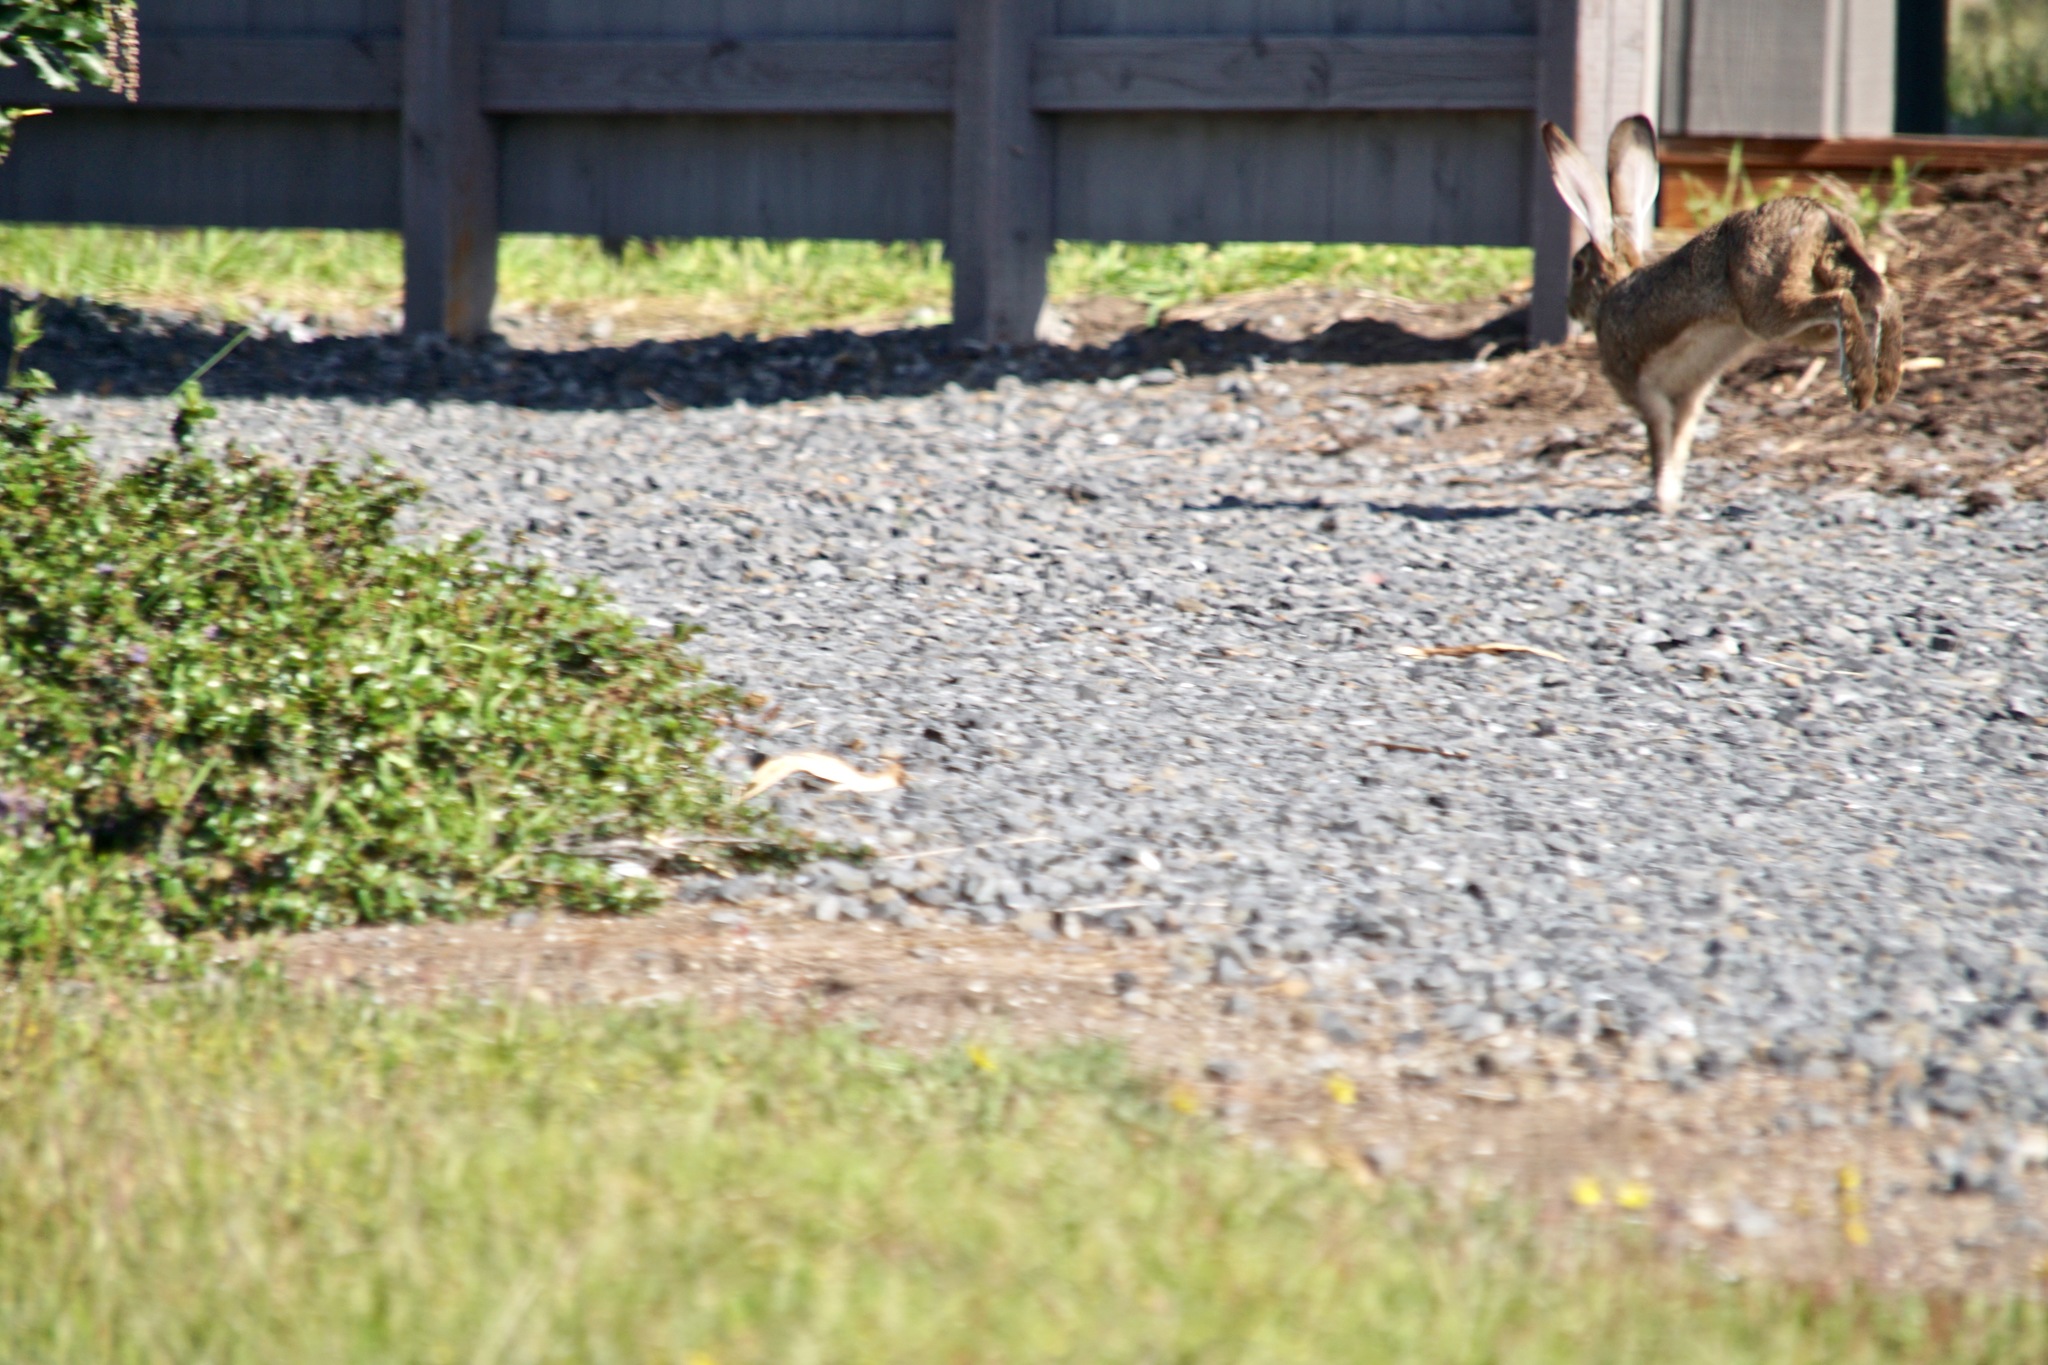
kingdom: Animalia
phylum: Chordata
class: Mammalia
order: Lagomorpha
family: Leporidae
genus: Lepus
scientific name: Lepus californicus
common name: Black-tailed jackrabbit
